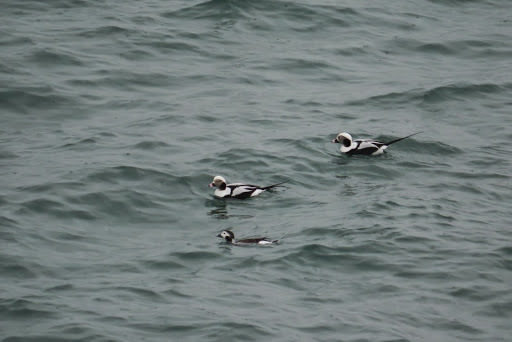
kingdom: Animalia
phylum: Chordata
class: Aves
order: Anseriformes
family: Anatidae
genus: Clangula
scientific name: Clangula hyemalis
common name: Long-tailed duck
